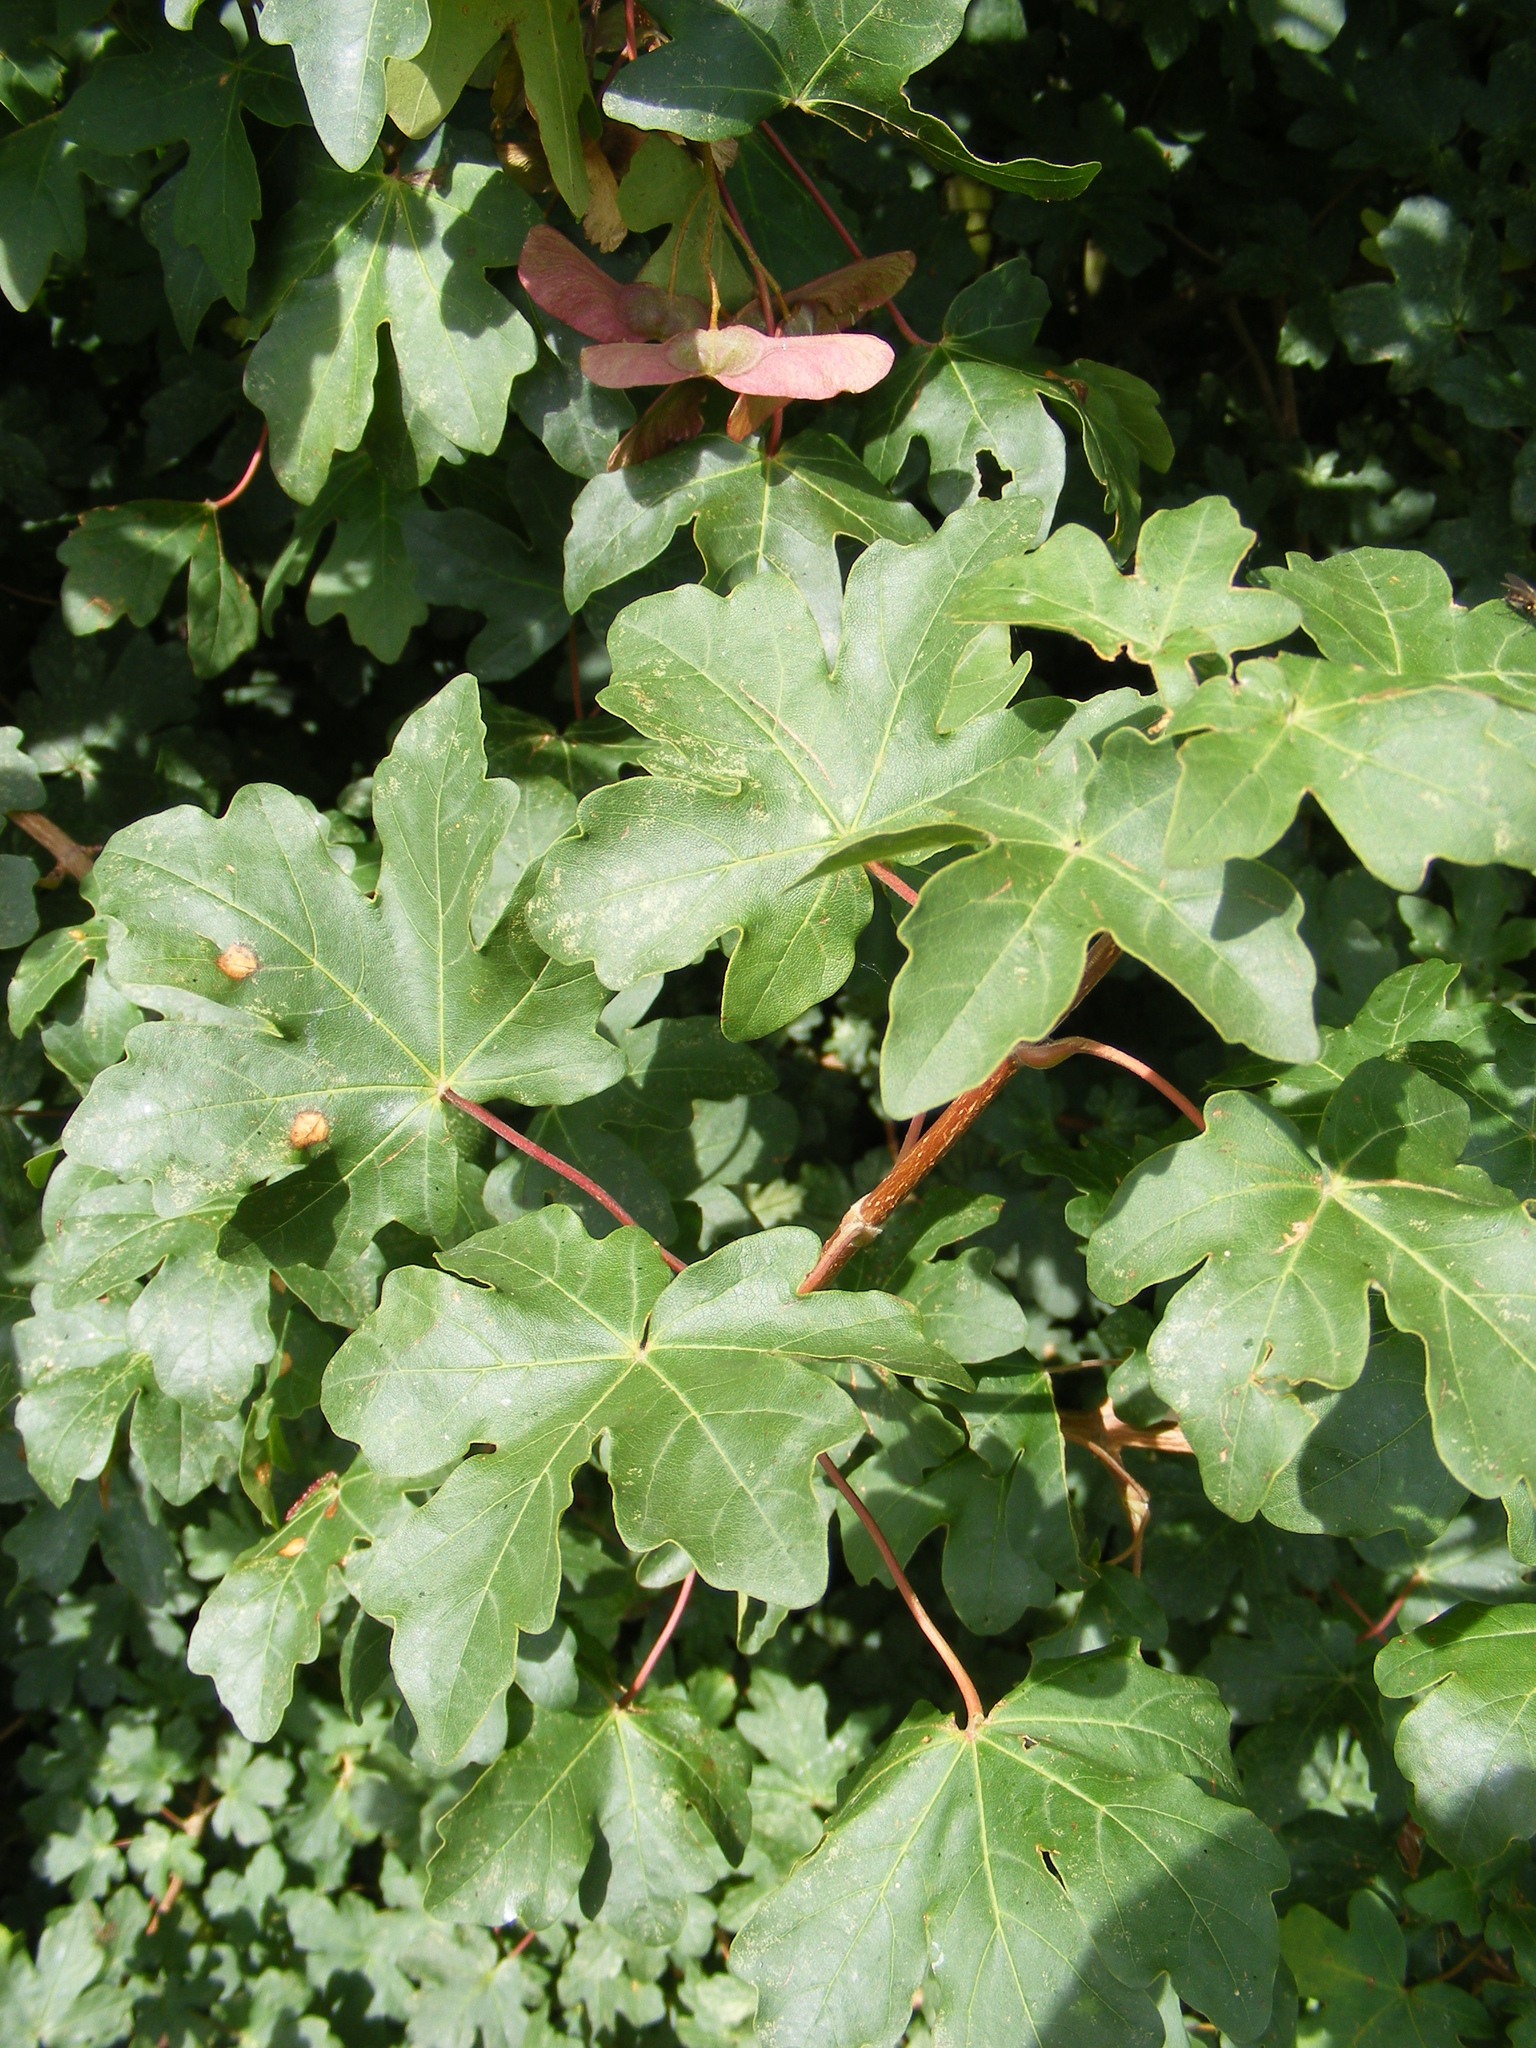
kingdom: Plantae
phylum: Tracheophyta
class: Magnoliopsida
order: Sapindales
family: Sapindaceae
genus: Acer
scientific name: Acer campestre
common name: Field maple
